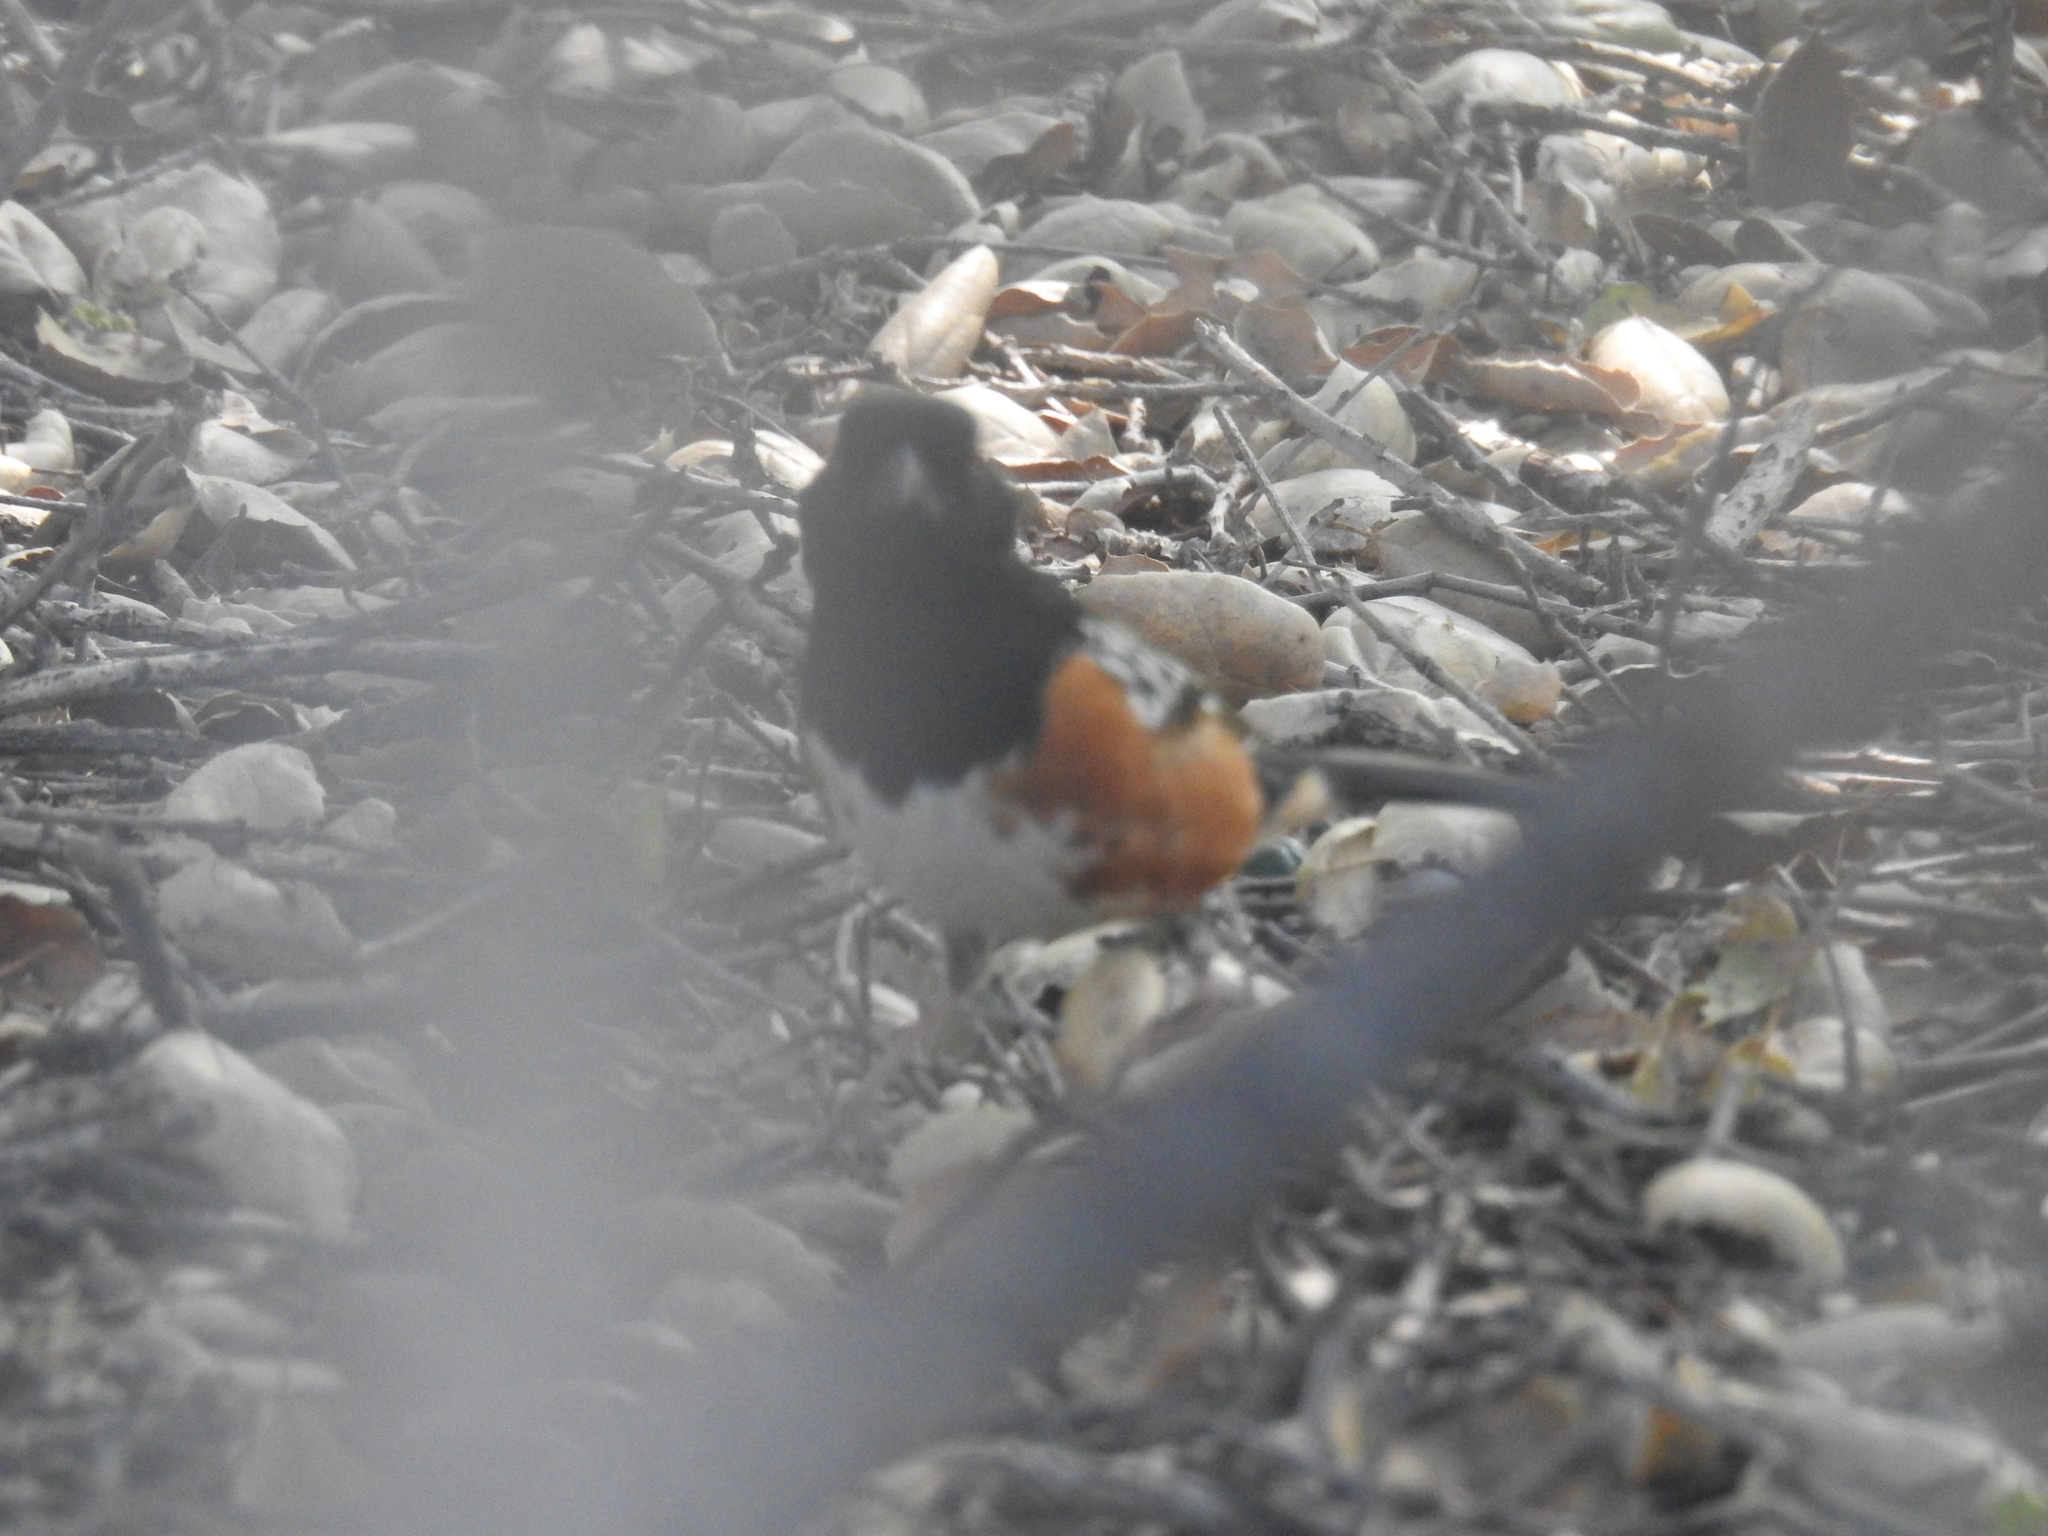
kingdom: Animalia
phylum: Chordata
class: Aves
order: Passeriformes
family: Passerellidae
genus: Pipilo
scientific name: Pipilo maculatus
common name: Spotted towhee
